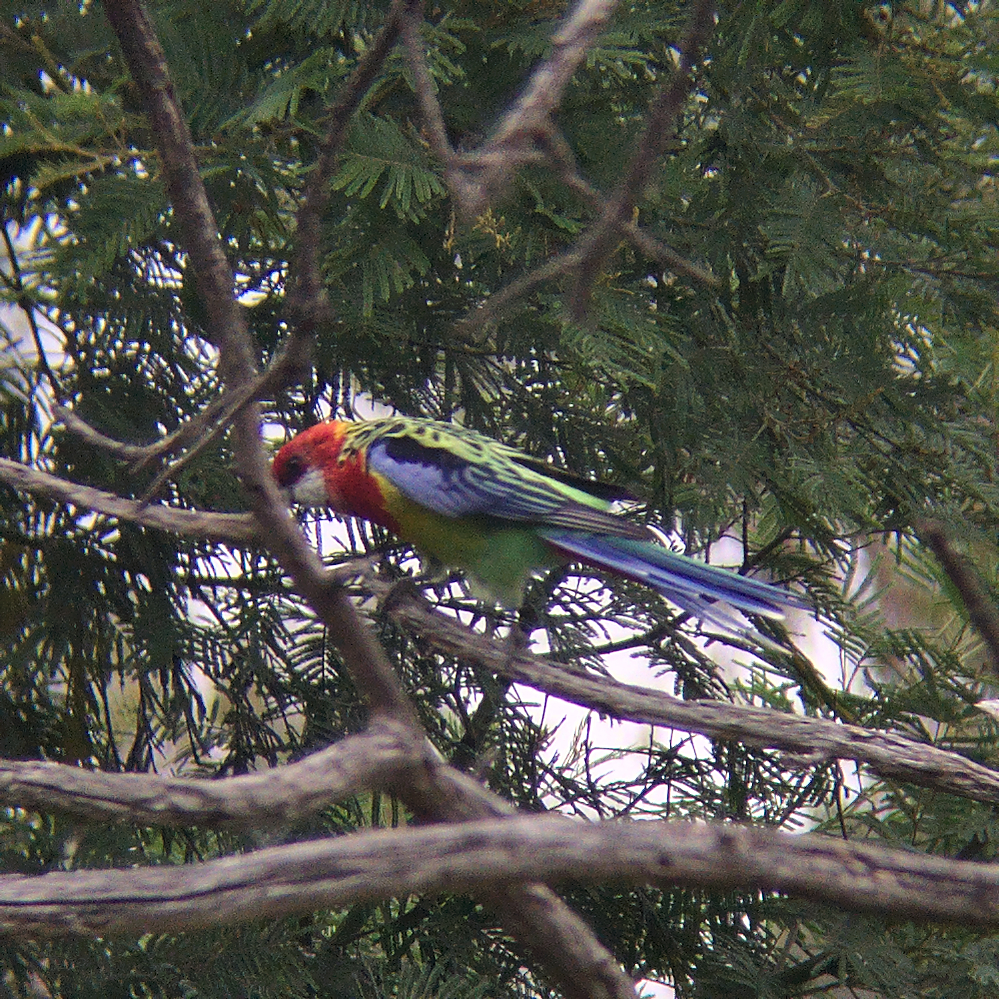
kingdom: Animalia
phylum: Chordata
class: Aves
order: Psittaciformes
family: Psittacidae
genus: Platycercus
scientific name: Platycercus eximius
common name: Eastern rosella
